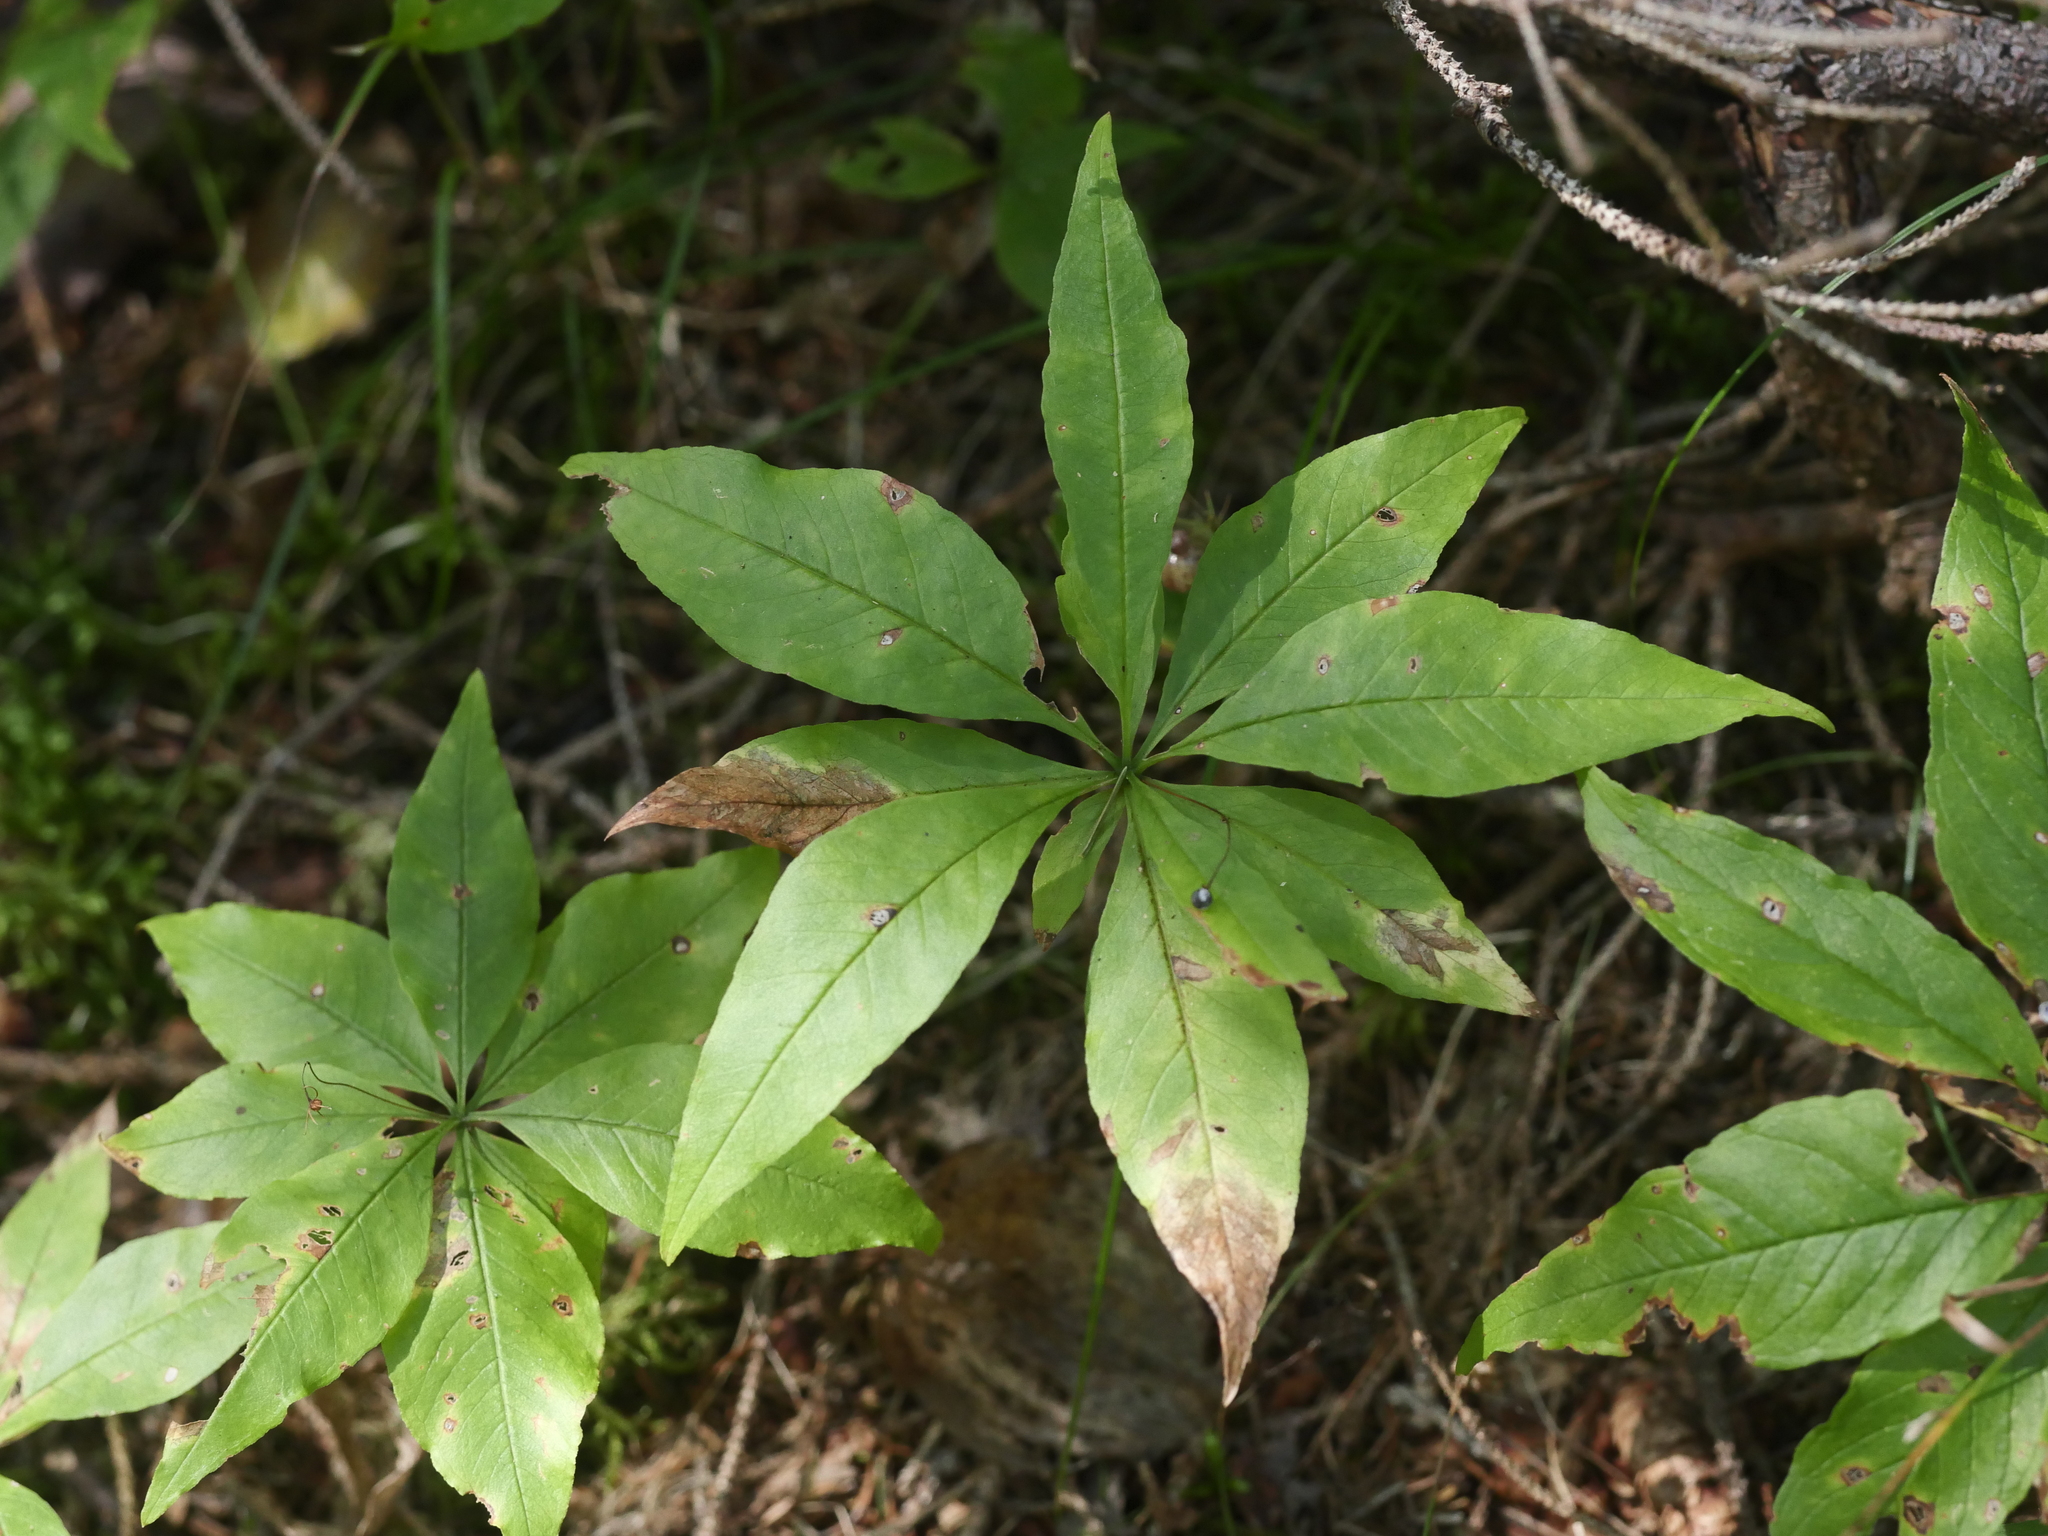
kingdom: Plantae
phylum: Tracheophyta
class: Magnoliopsida
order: Ericales
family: Primulaceae
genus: Lysimachia
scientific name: Lysimachia borealis
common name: American starflower
